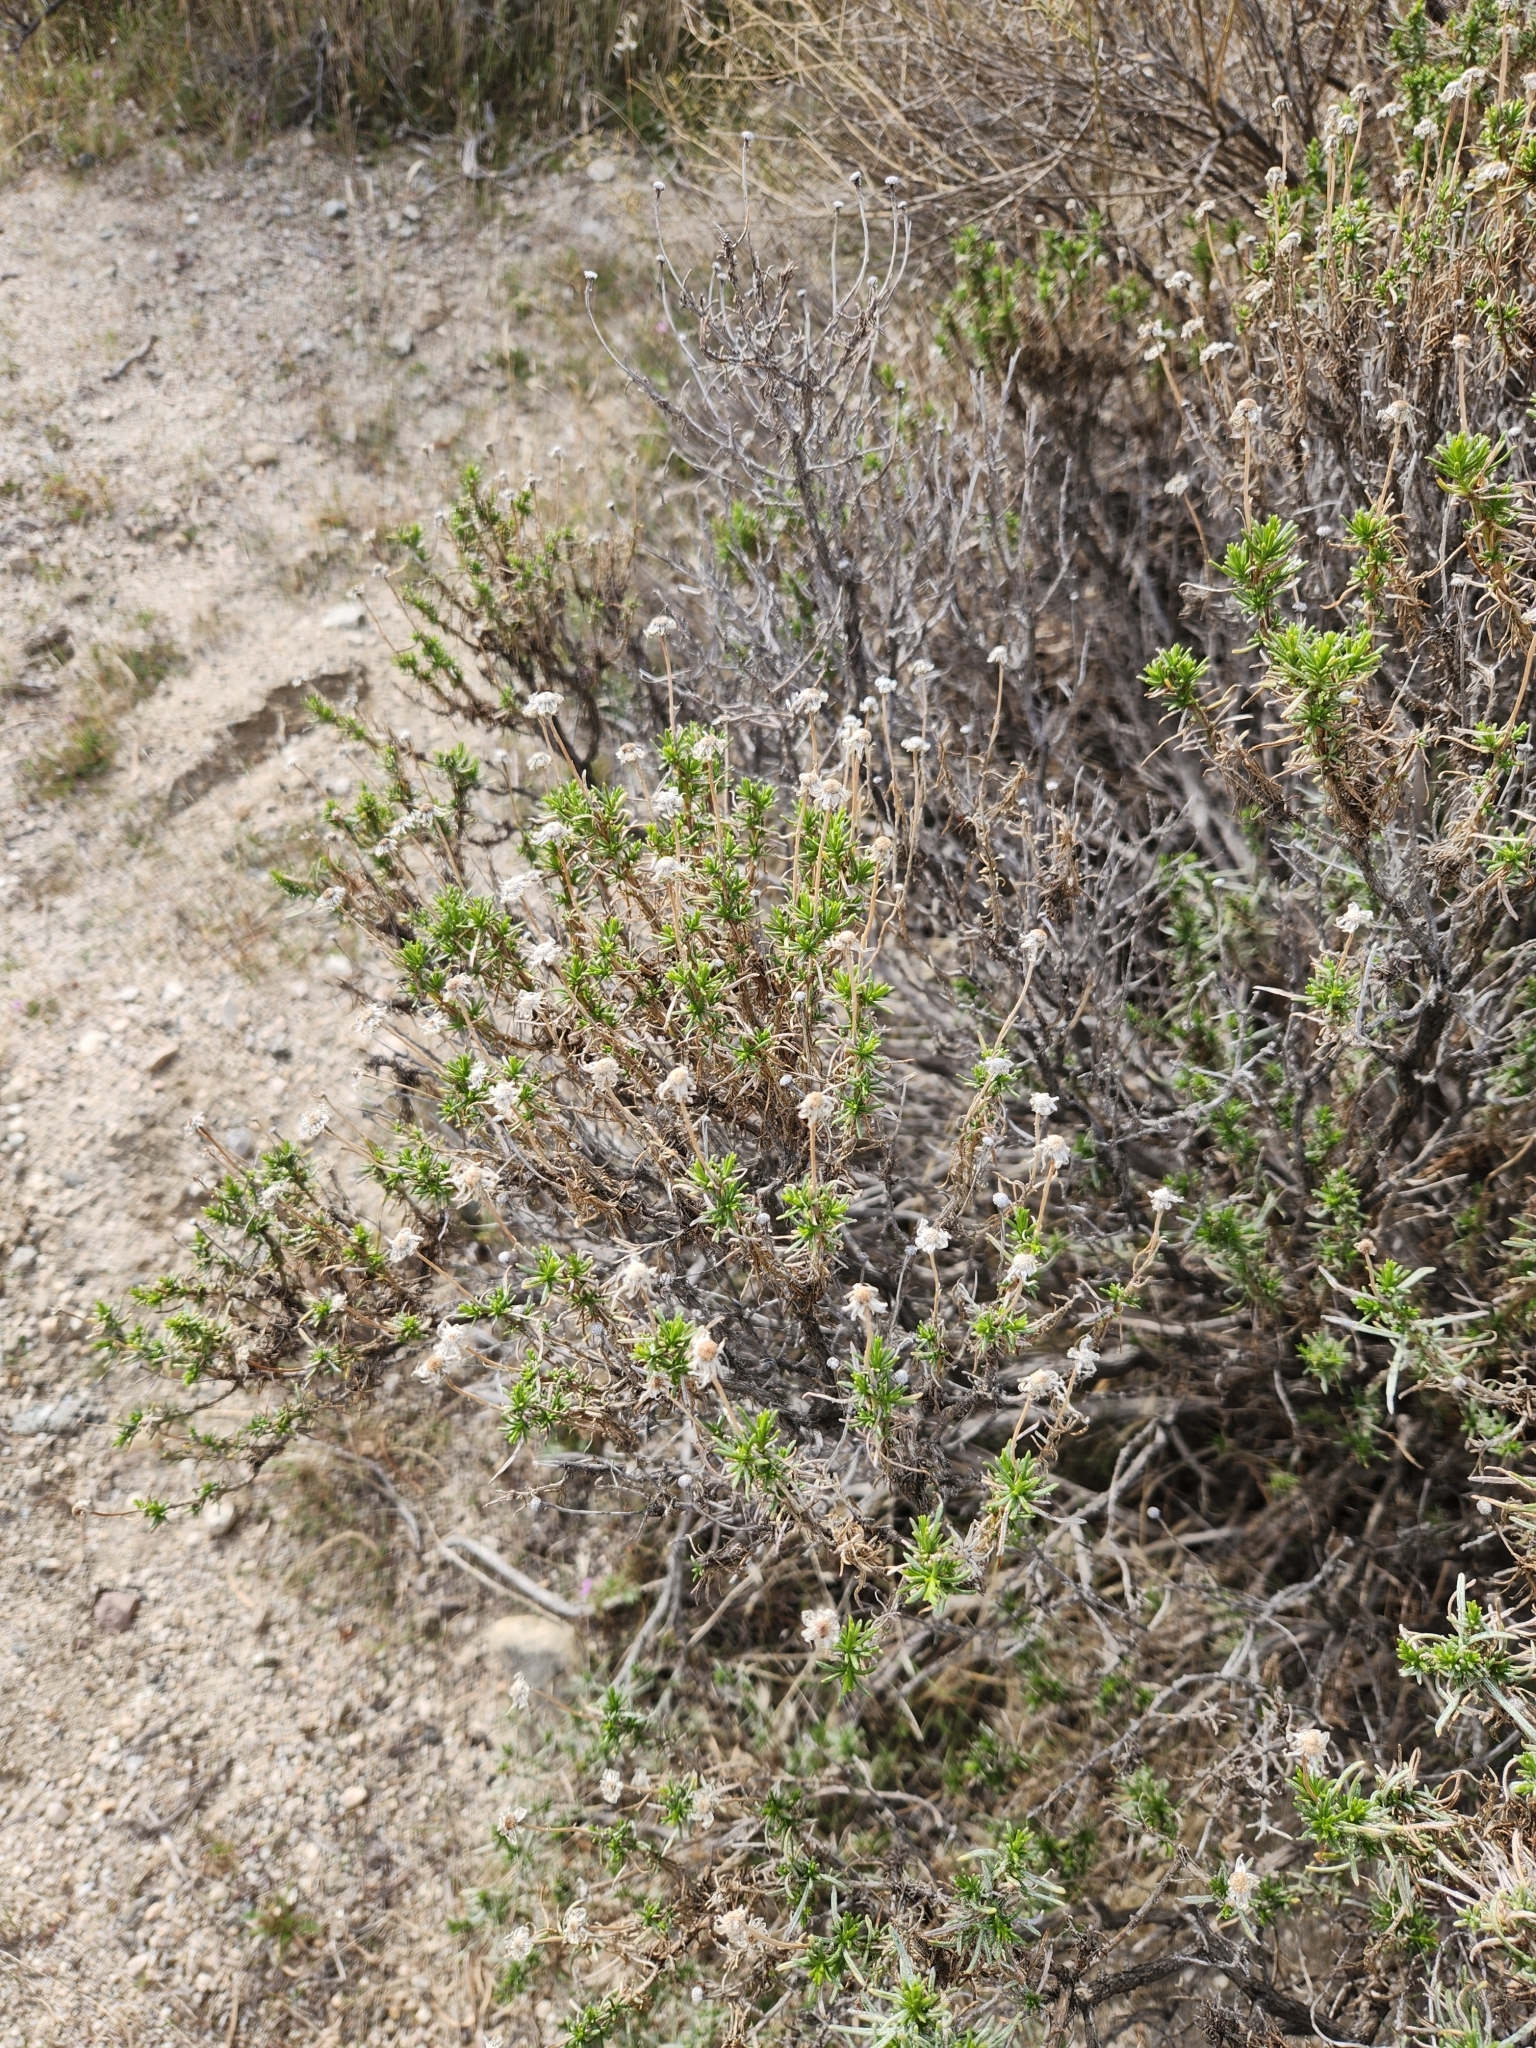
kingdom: Plantae
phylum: Tracheophyta
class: Magnoliopsida
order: Asterales
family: Asteraceae
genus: Ericameria
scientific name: Ericameria linearifolia
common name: Interior goldenbush
